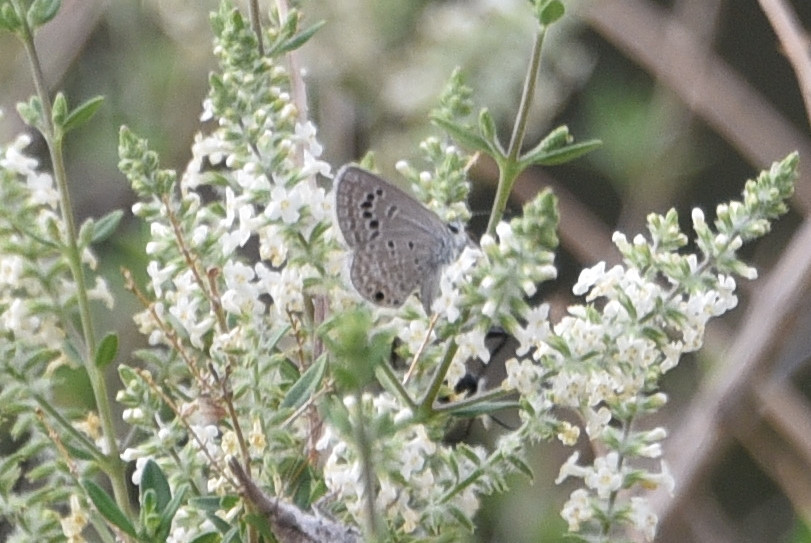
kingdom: Animalia
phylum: Arthropoda
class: Insecta
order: Lepidoptera
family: Lycaenidae
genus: Echinargus
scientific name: Echinargus isola
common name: Reakirt's blue
